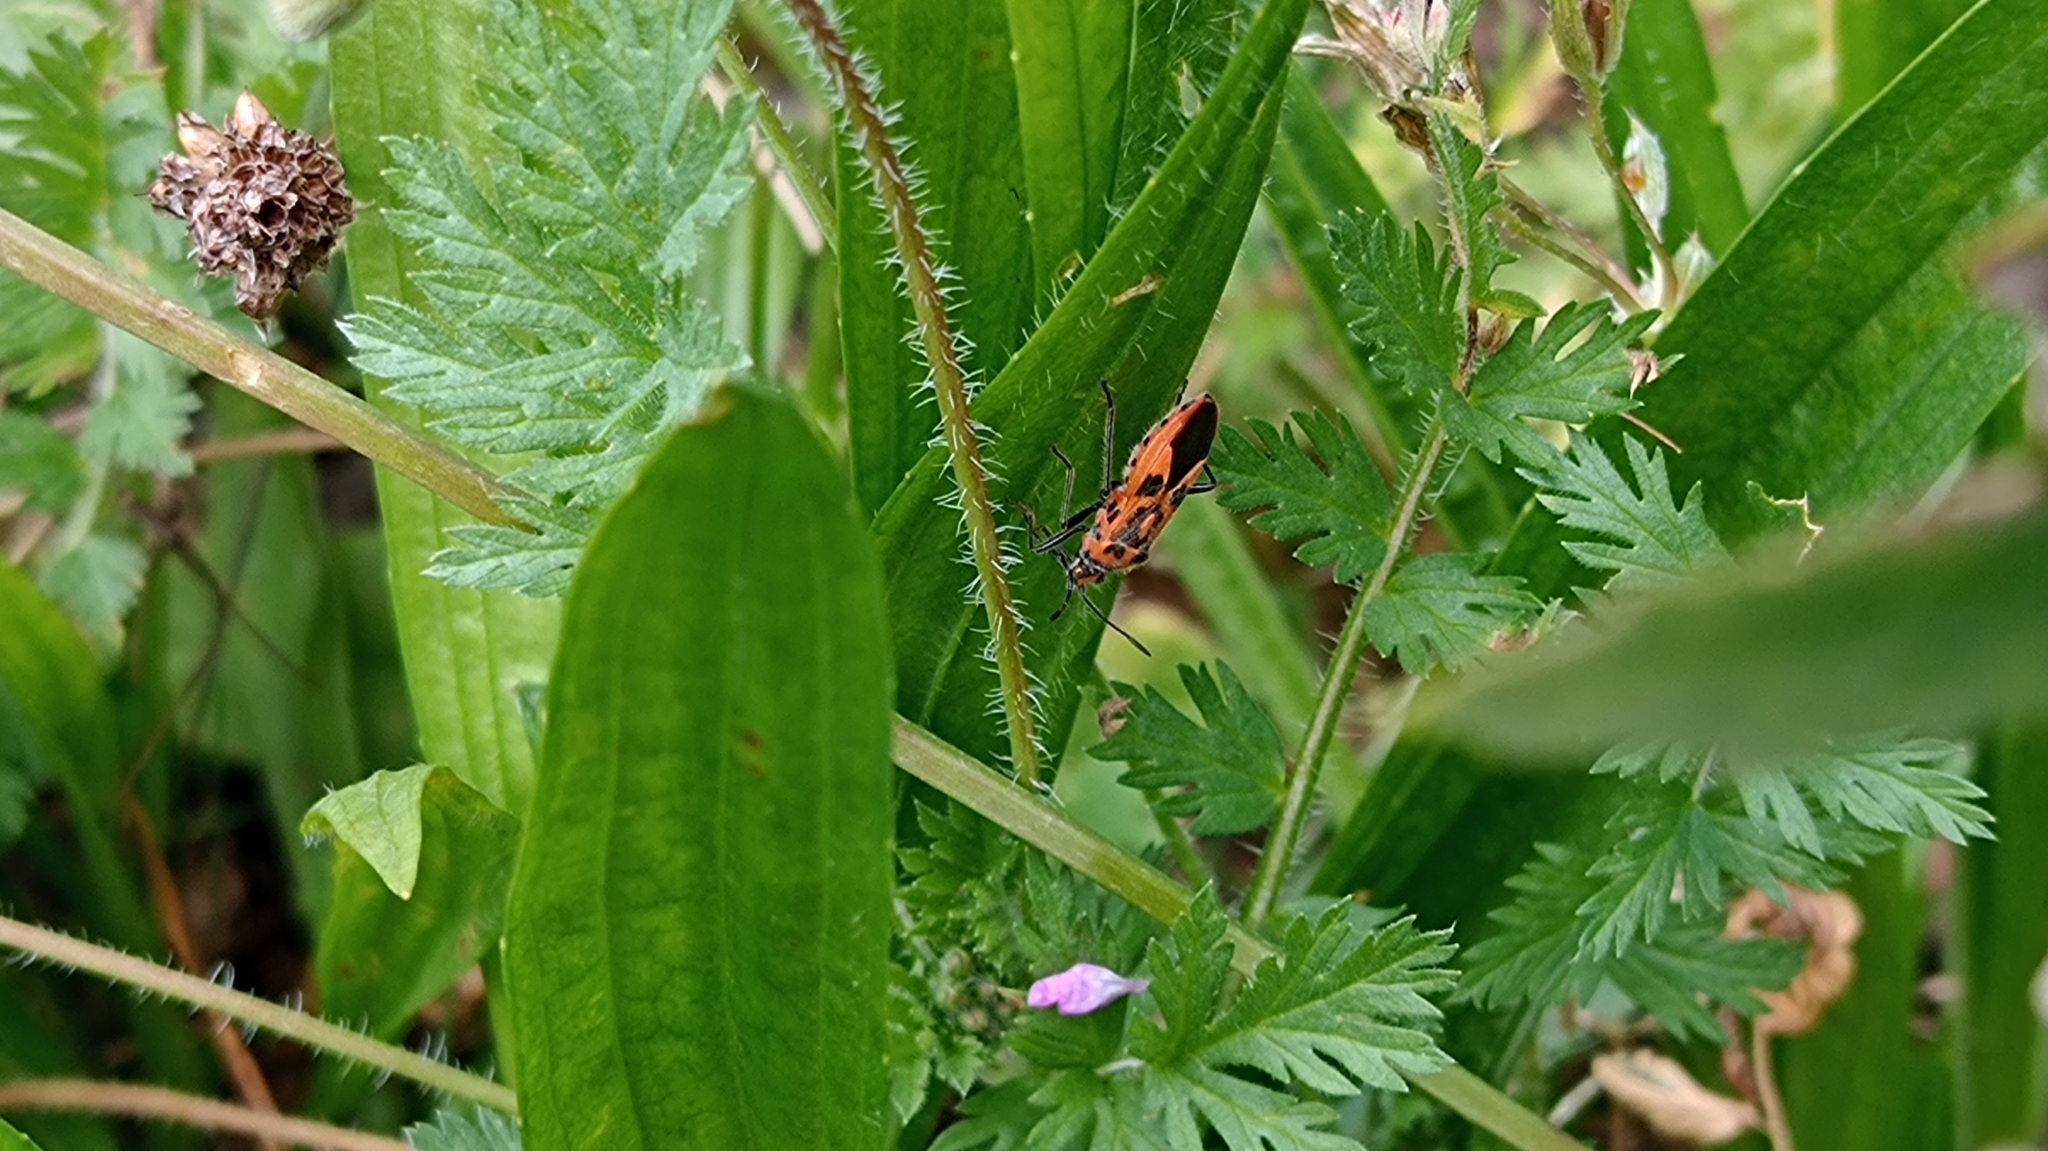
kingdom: Animalia
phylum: Arthropoda
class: Insecta
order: Hemiptera
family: Rhopalidae
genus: Corizus
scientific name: Corizus hyoscyami
